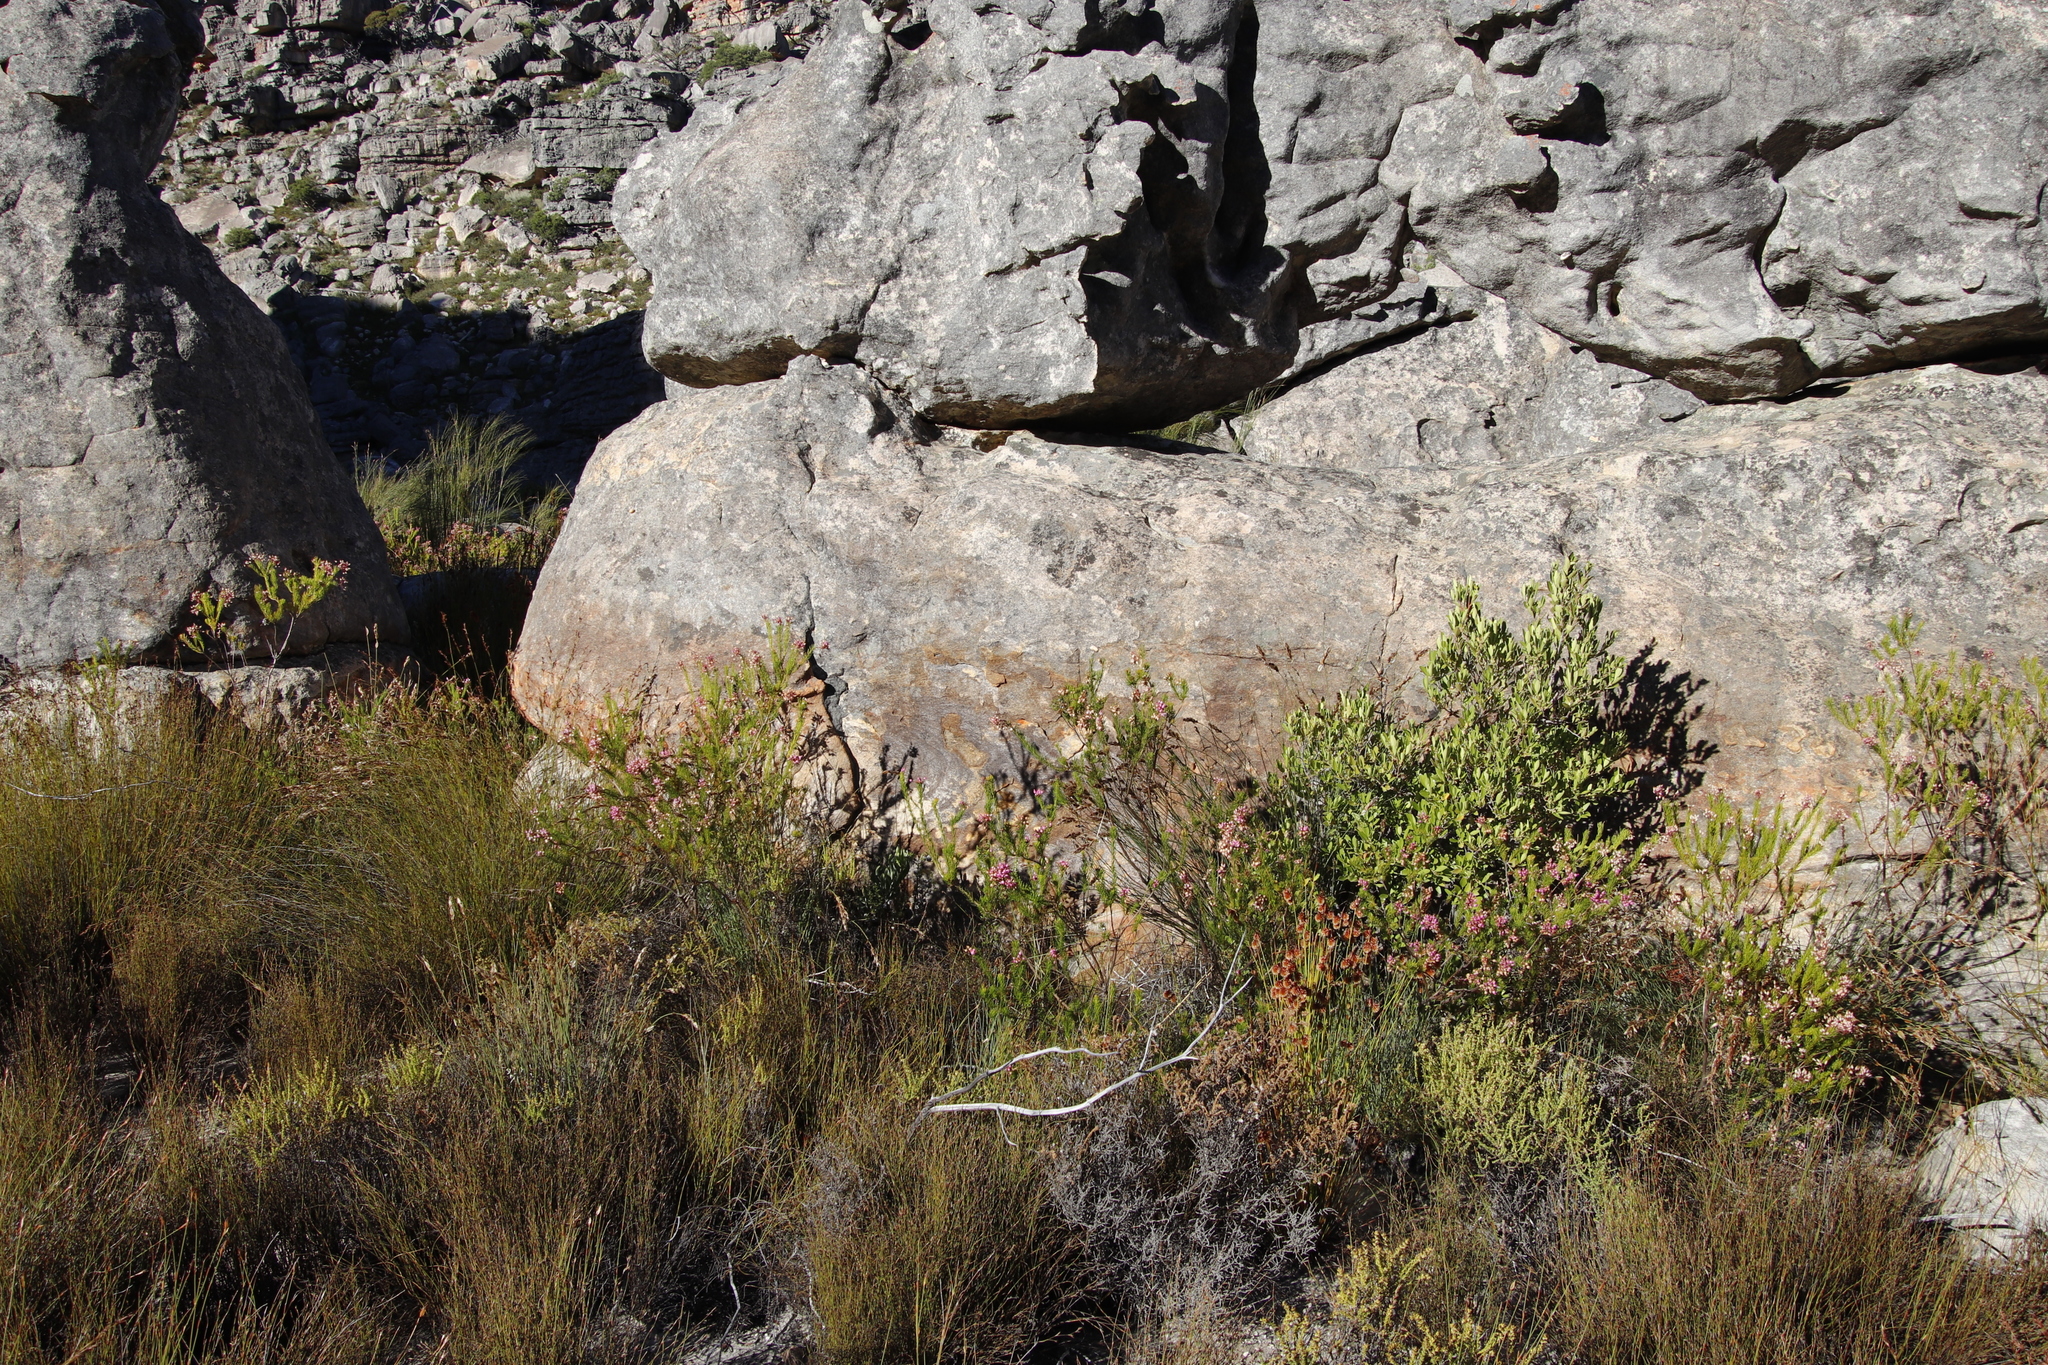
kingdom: Plantae
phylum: Tracheophyta
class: Magnoliopsida
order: Ericales
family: Ericaceae
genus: Erica
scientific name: Erica inflata
